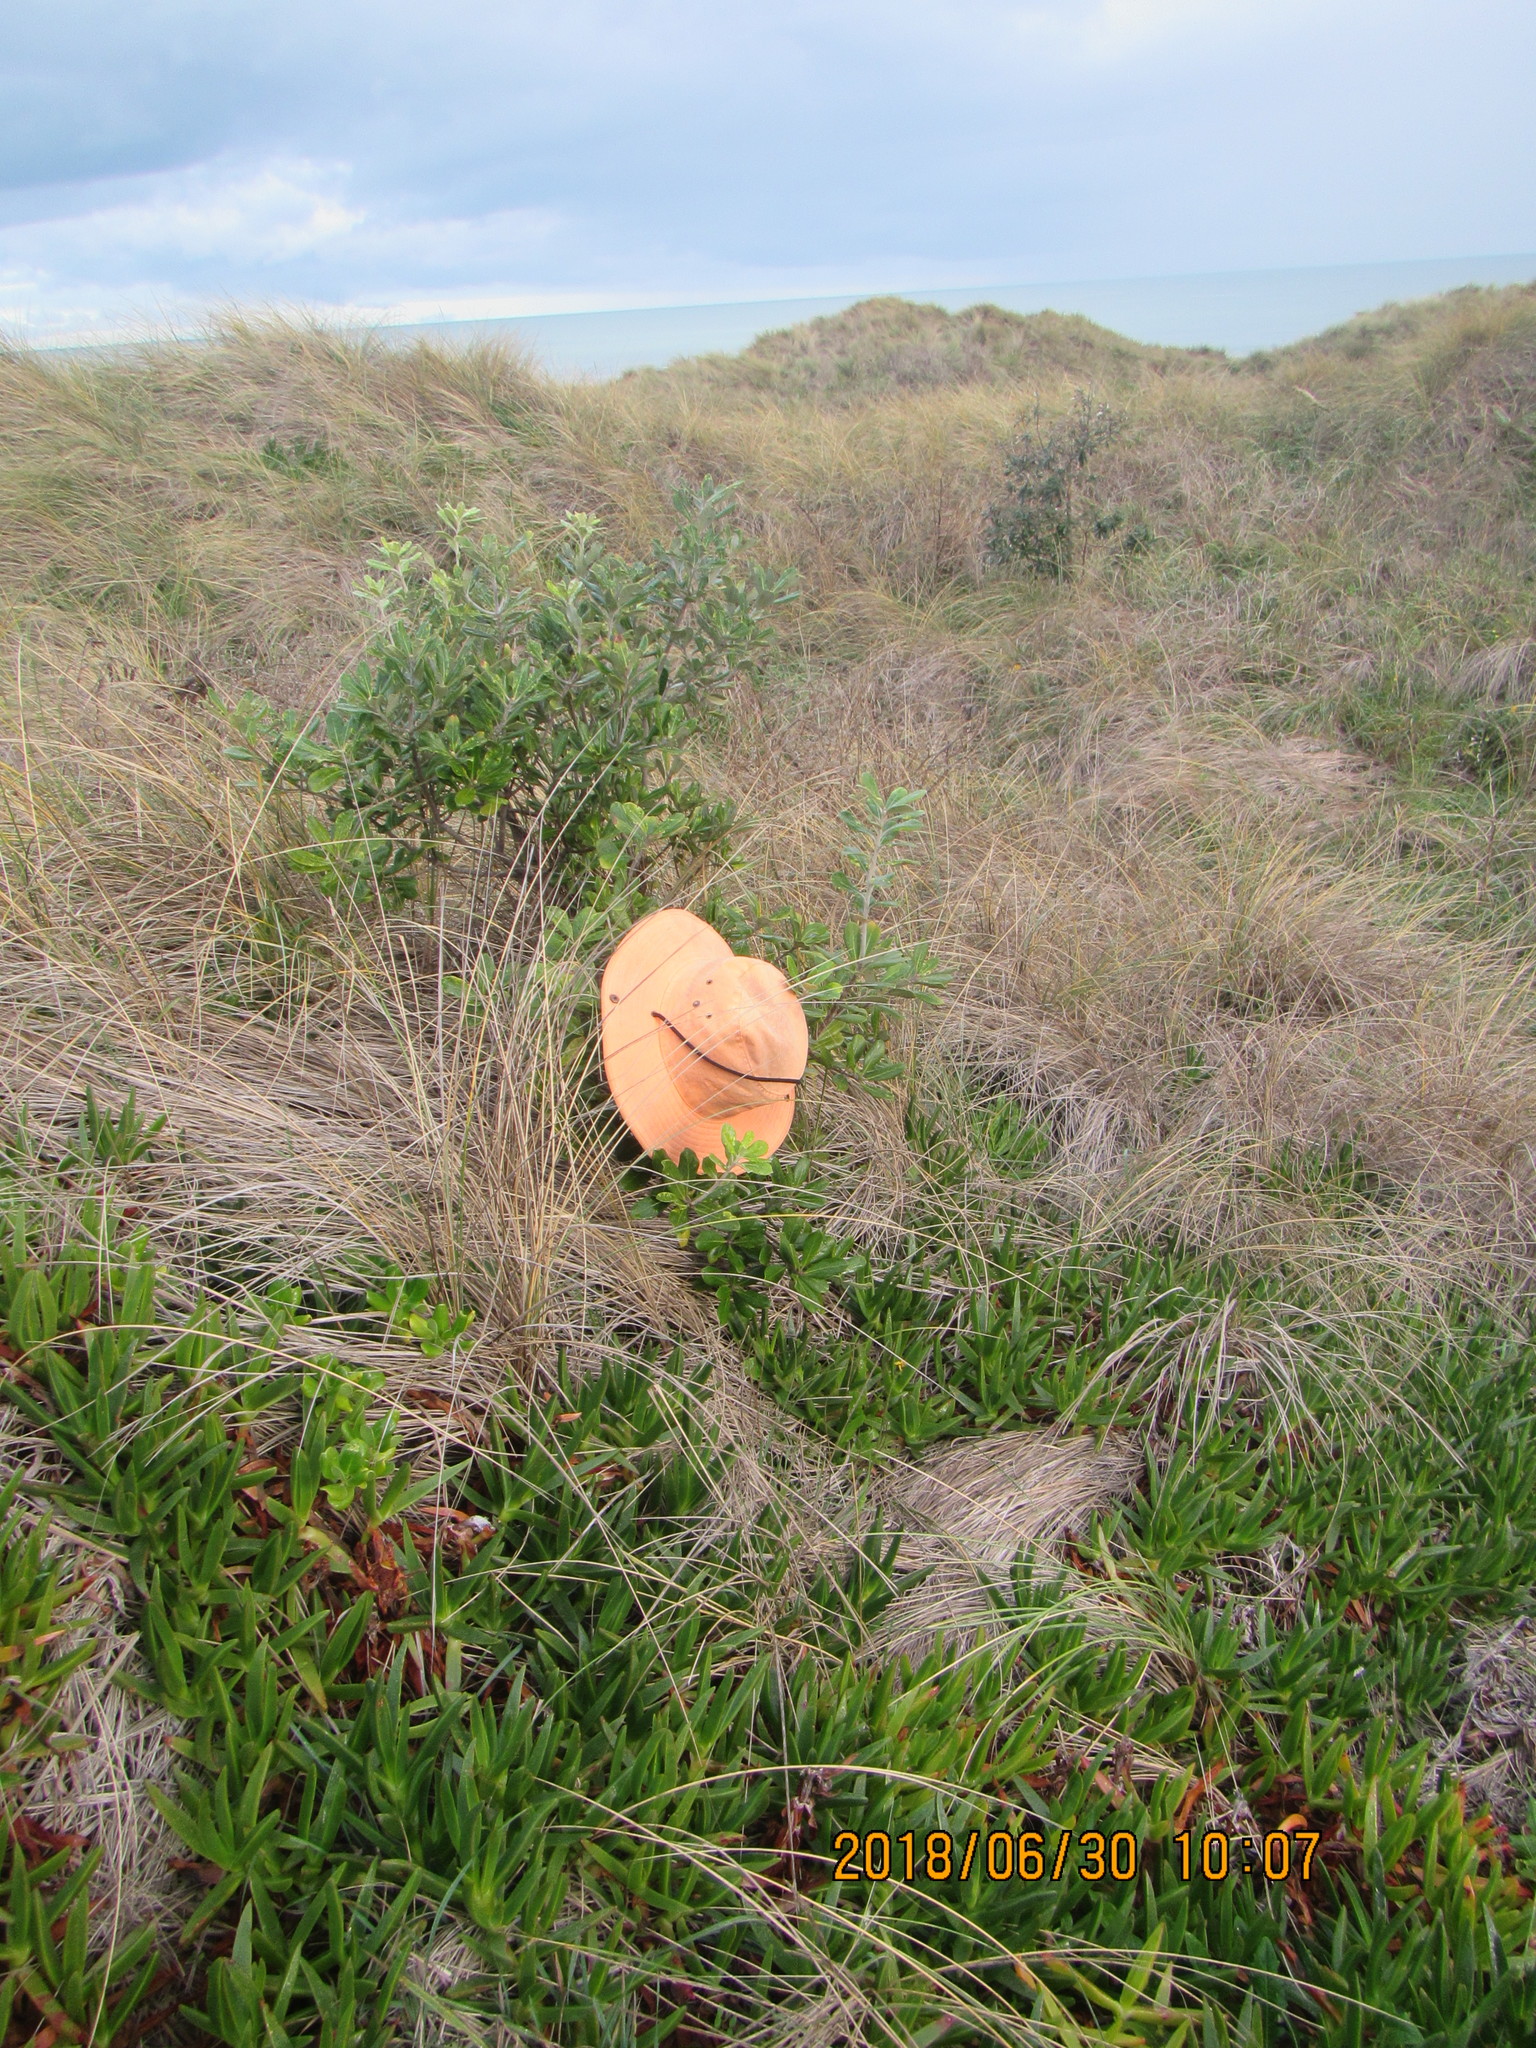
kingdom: Plantae
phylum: Tracheophyta
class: Magnoliopsida
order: Apiales
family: Pittosporaceae
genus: Pittosporum
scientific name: Pittosporum crassifolium
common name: Karo
